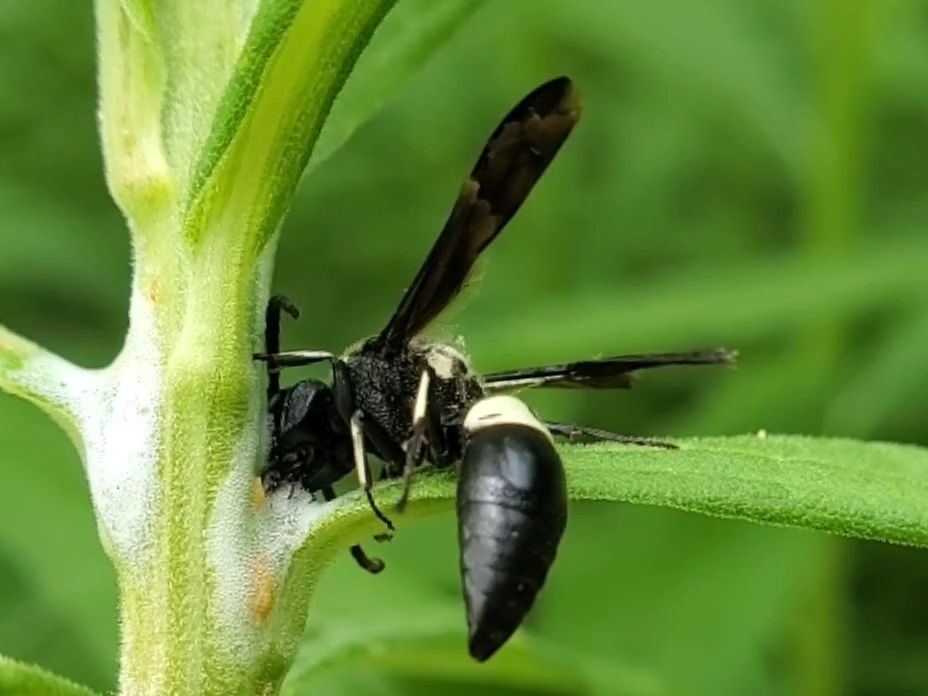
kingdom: Animalia
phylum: Arthropoda
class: Insecta
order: Hymenoptera
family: Eumenidae
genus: Monobia
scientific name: Monobia quadridens
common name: Four-toothed mason wasp
